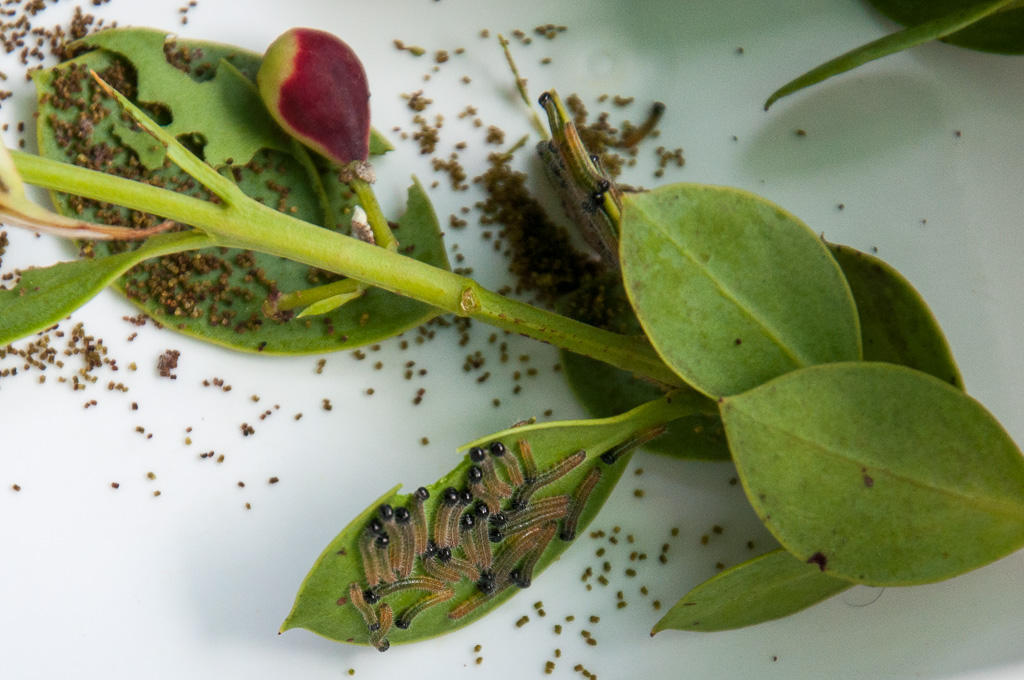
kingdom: Plantae
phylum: Tracheophyta
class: Magnoliopsida
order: Santalales
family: Santalaceae
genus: Osyris
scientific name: Osyris compressa
